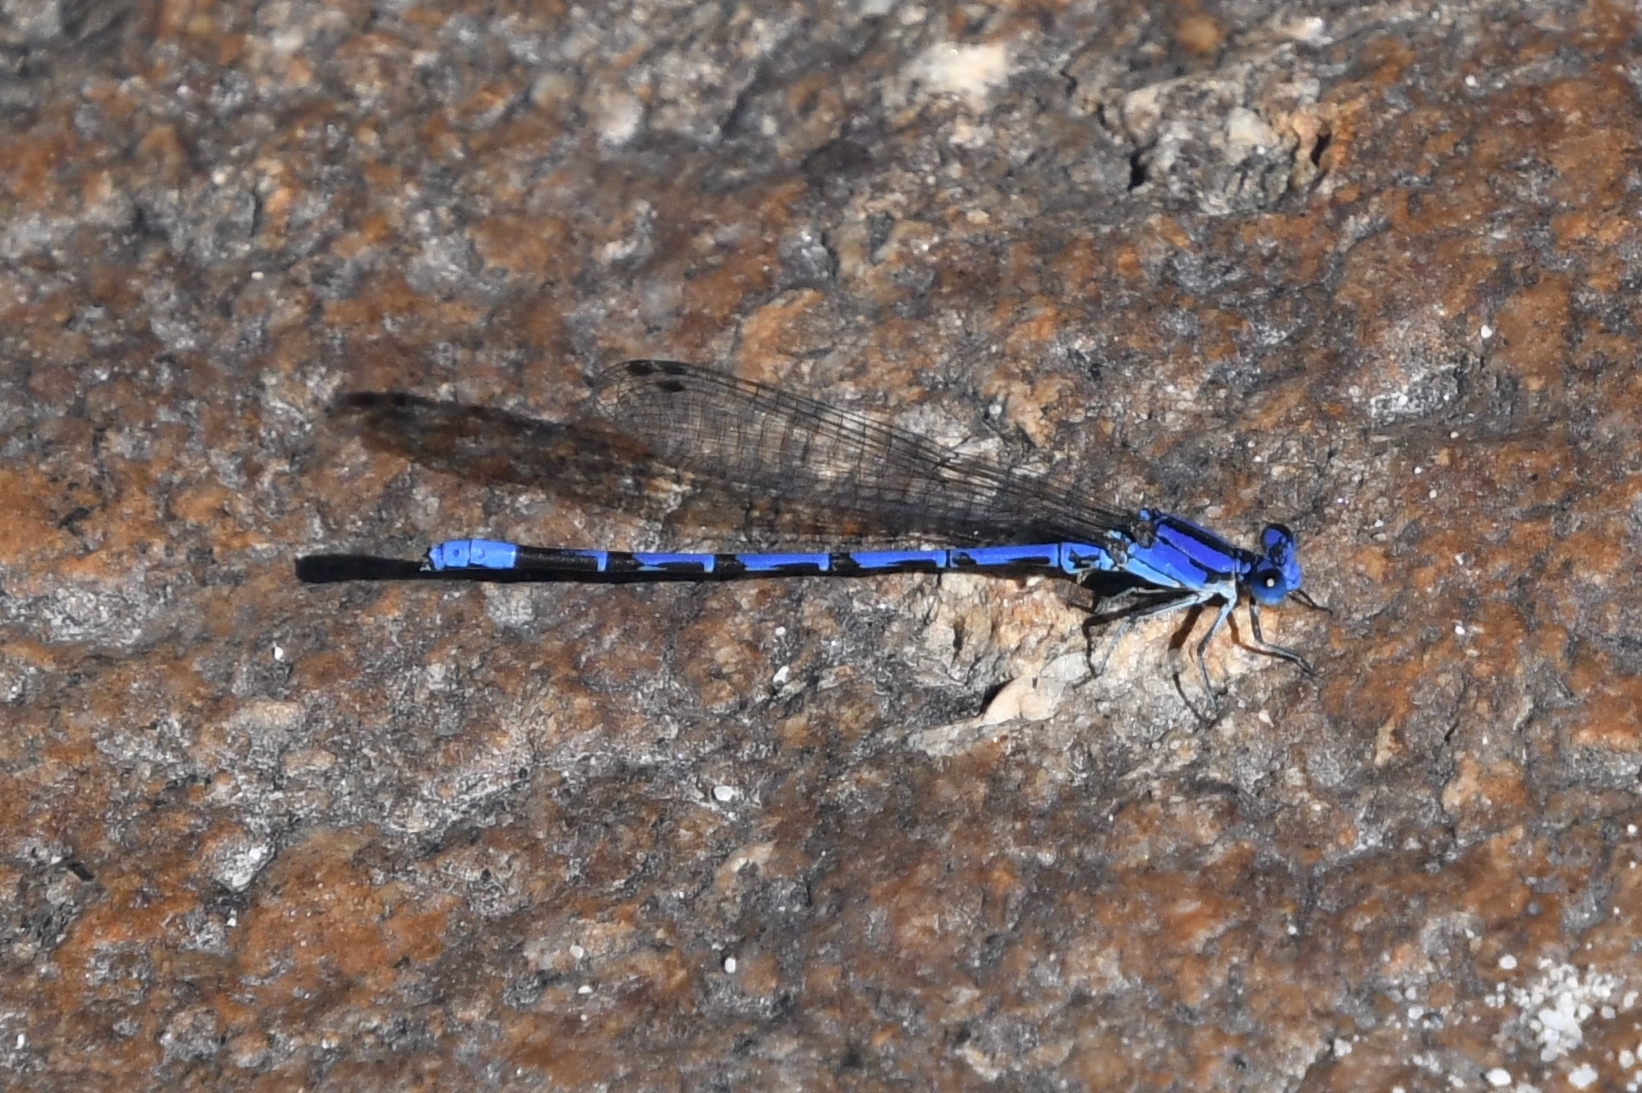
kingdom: Animalia
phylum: Arthropoda
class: Insecta
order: Odonata
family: Coenagrionidae
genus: Argia
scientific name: Argia extranea
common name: Spine-tipped dancer
